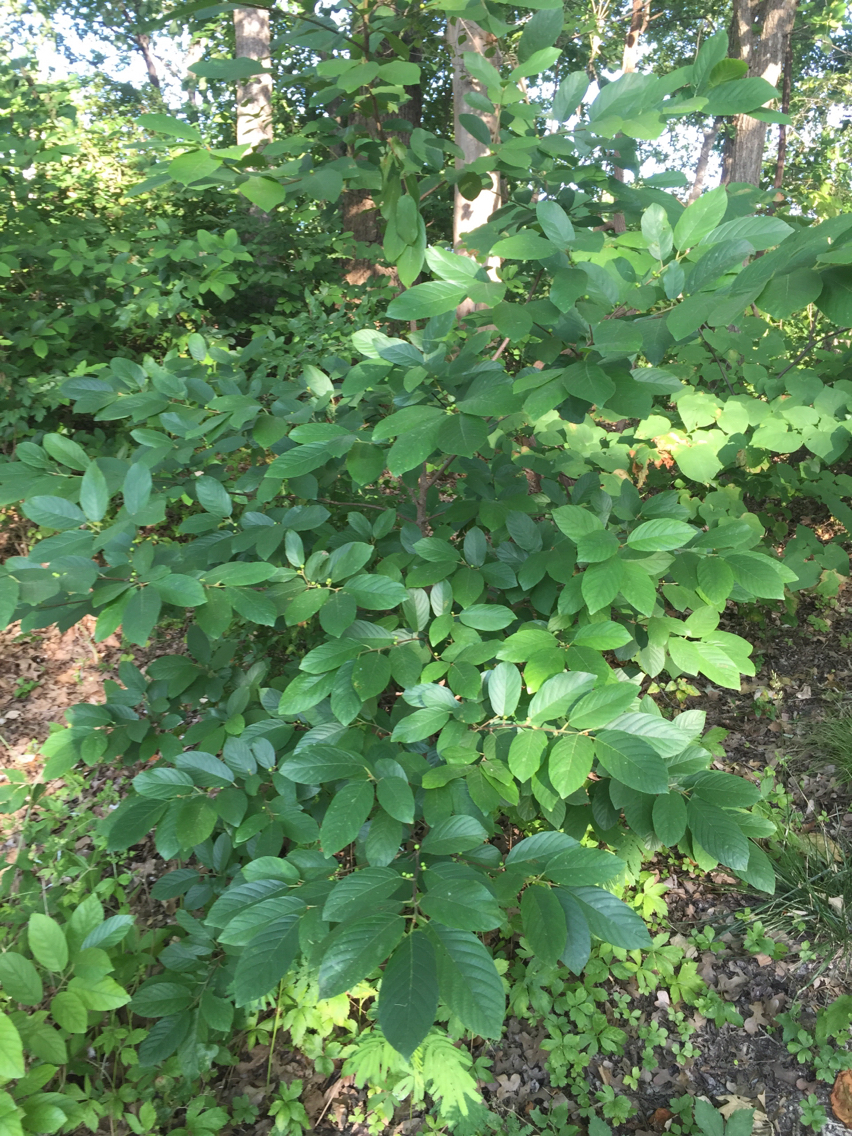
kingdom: Plantae
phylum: Tracheophyta
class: Magnoliopsida
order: Rosales
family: Rhamnaceae
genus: Frangula
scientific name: Frangula caroliniana
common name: Carolina buckthorn
